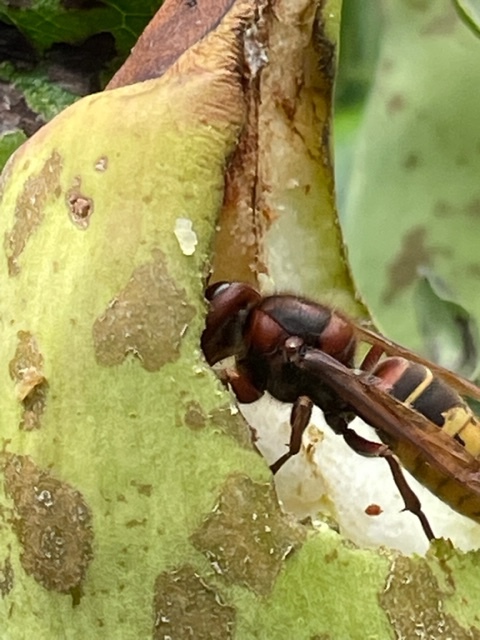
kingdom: Animalia
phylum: Arthropoda
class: Insecta
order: Hymenoptera
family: Vespidae
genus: Vespa
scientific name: Vespa crabro
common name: Hornet
